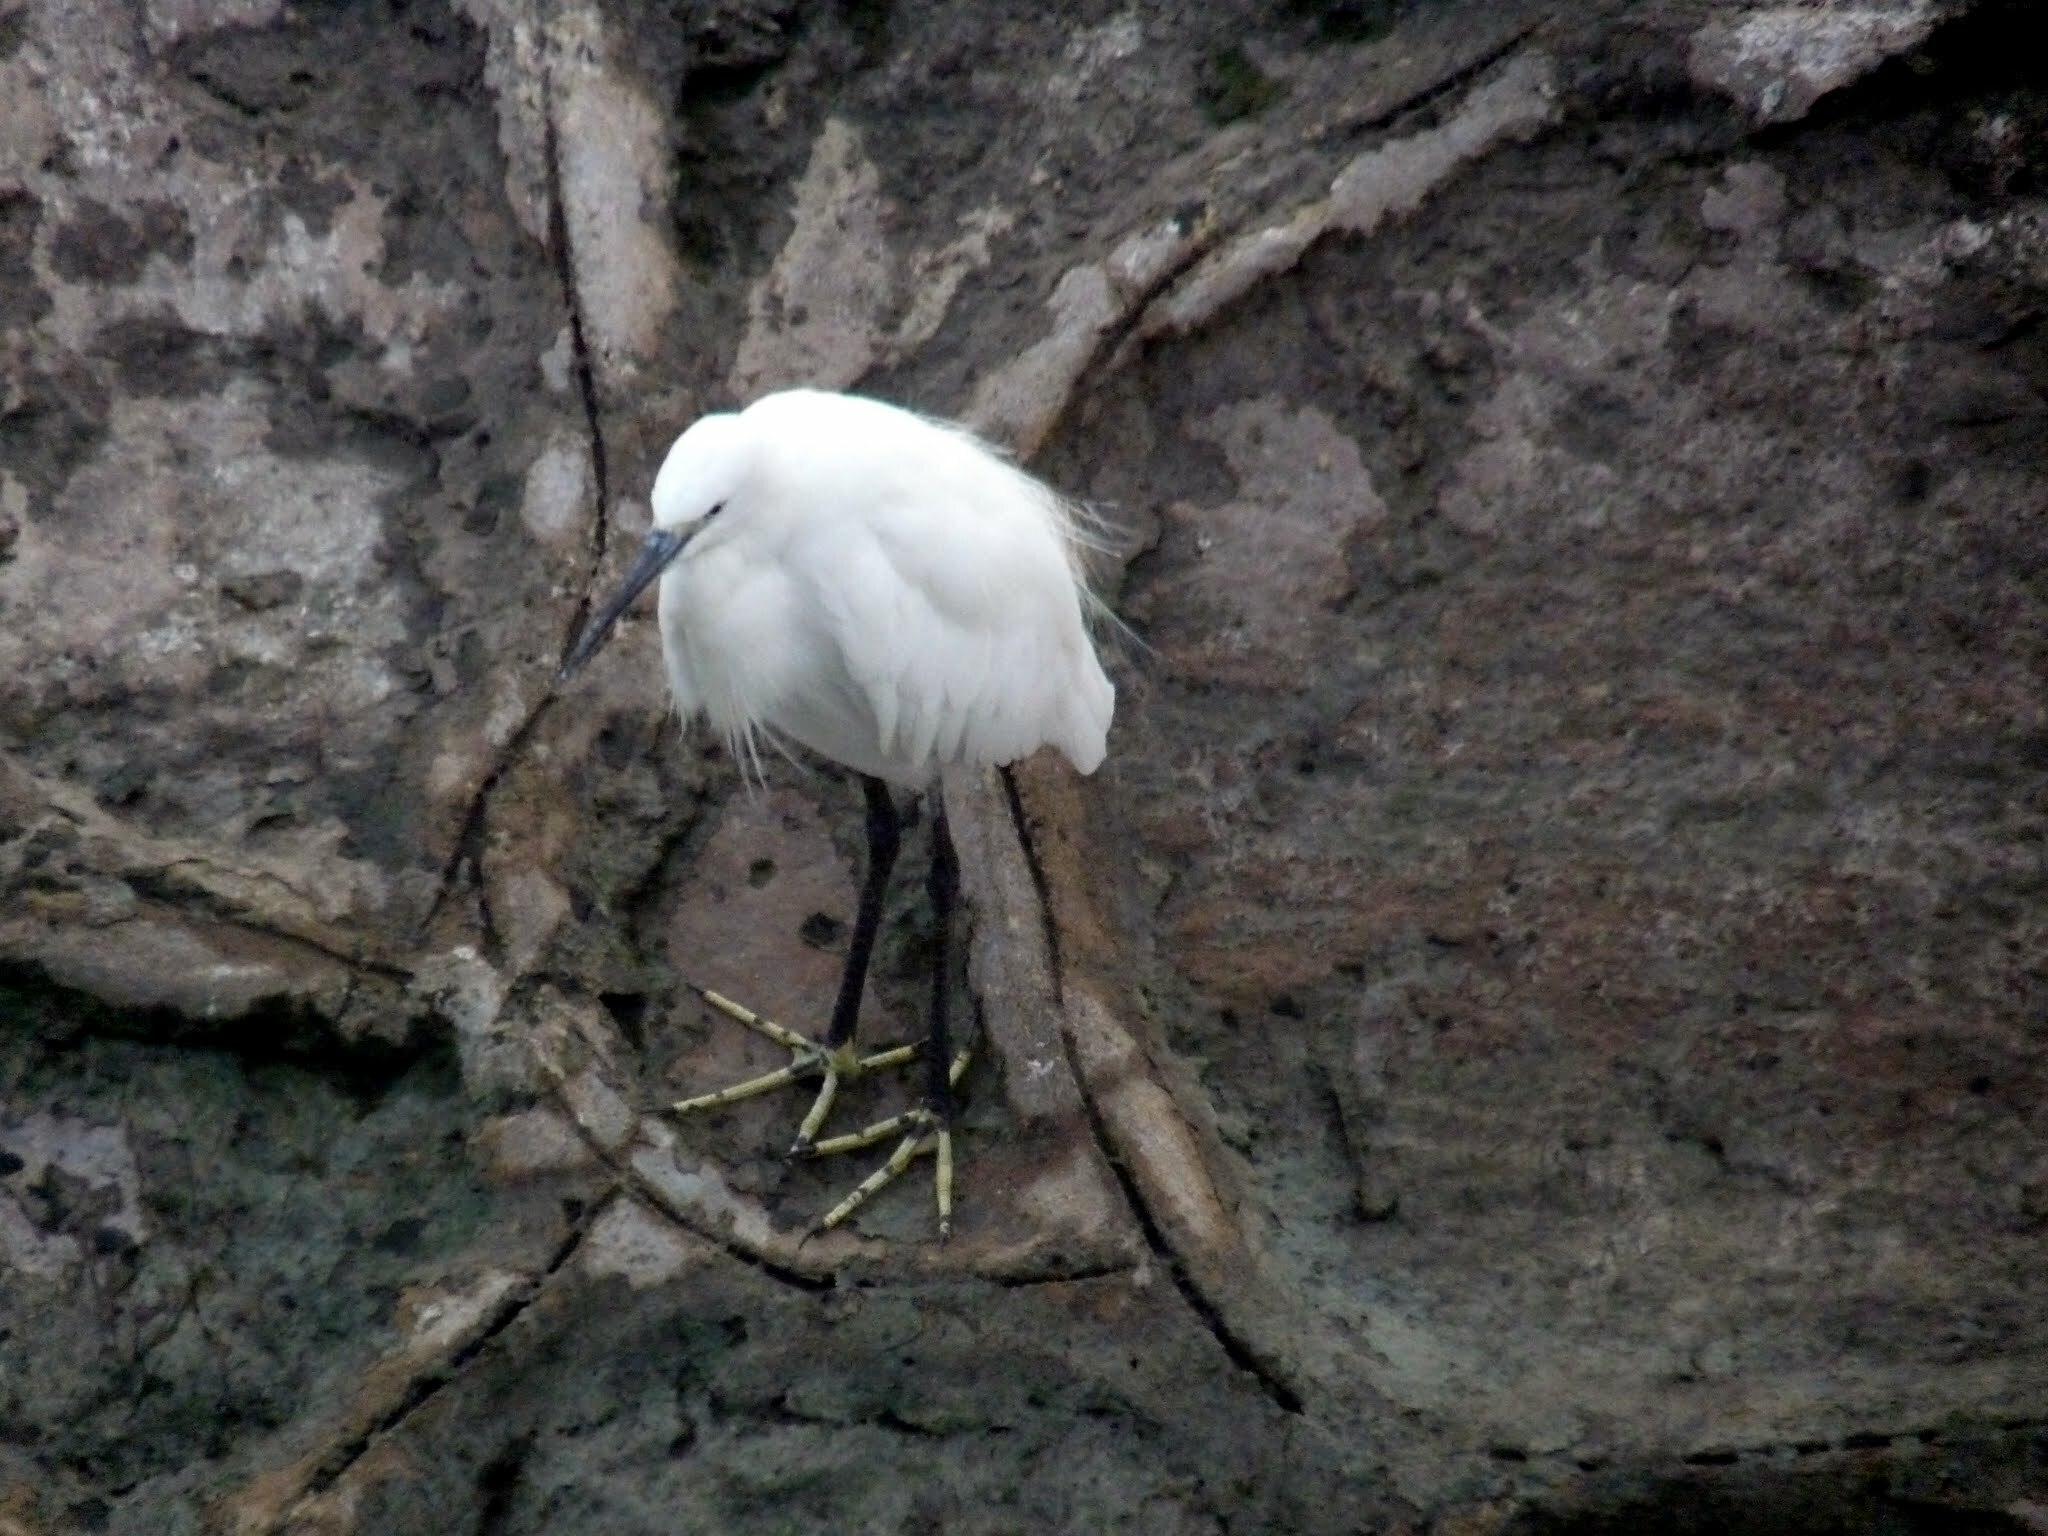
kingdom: Animalia
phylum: Chordata
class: Aves
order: Pelecaniformes
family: Ardeidae
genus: Egretta
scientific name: Egretta garzetta
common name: Little egret
